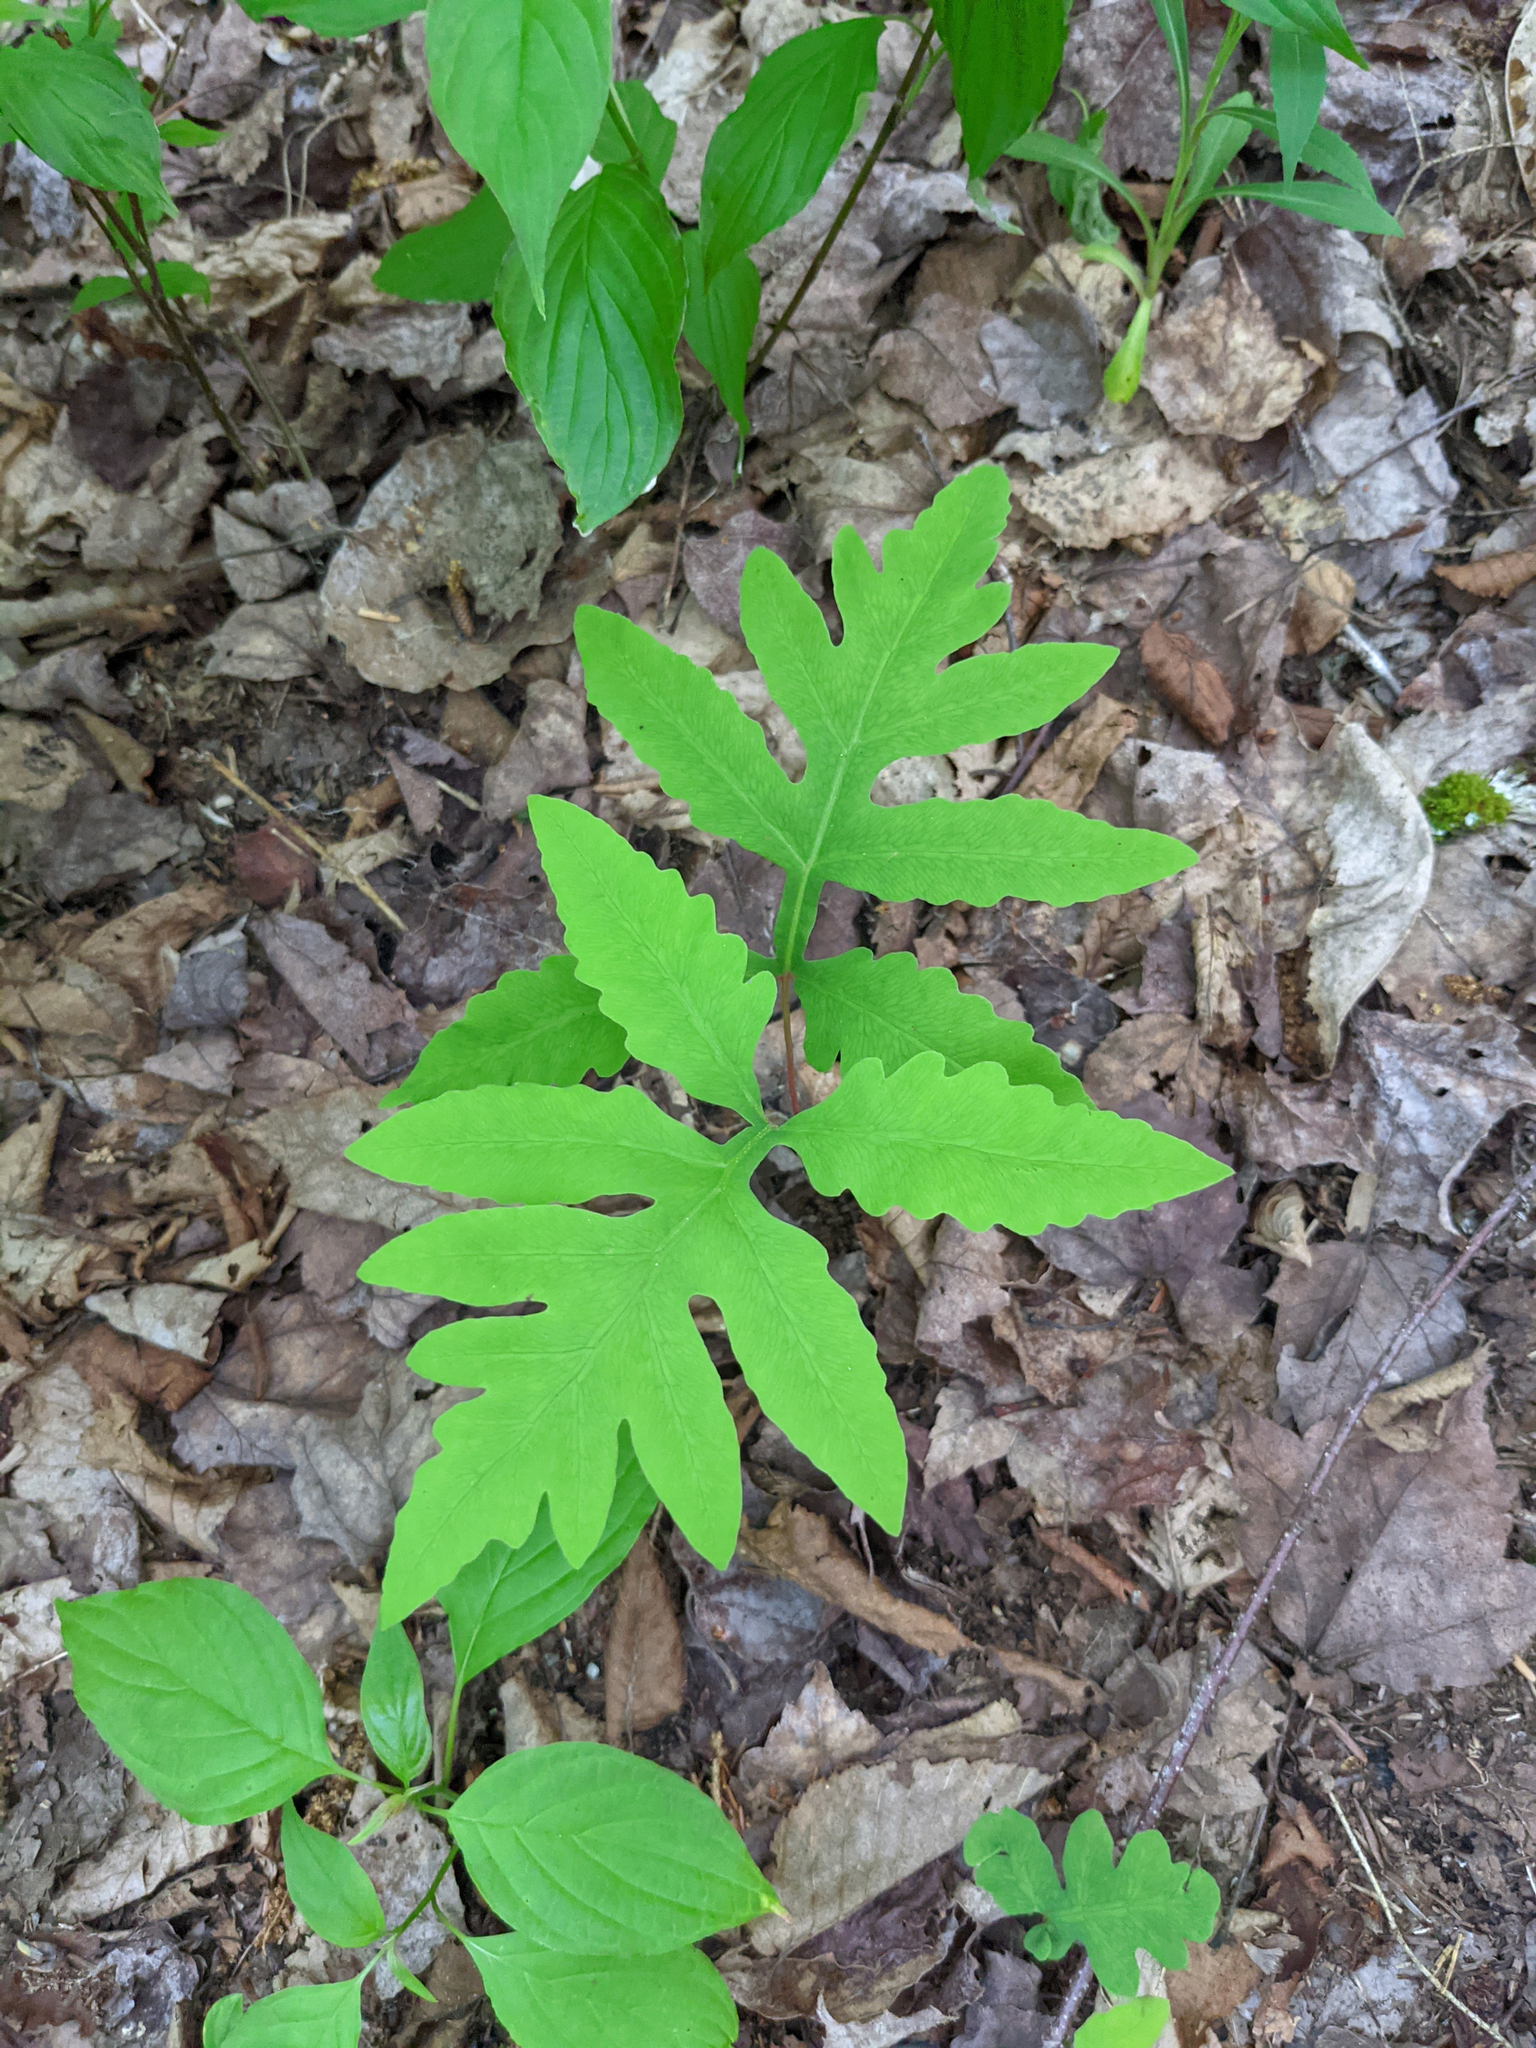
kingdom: Plantae
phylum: Tracheophyta
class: Polypodiopsida
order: Polypodiales
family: Onocleaceae
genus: Onoclea
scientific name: Onoclea sensibilis
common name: Sensitive fern
